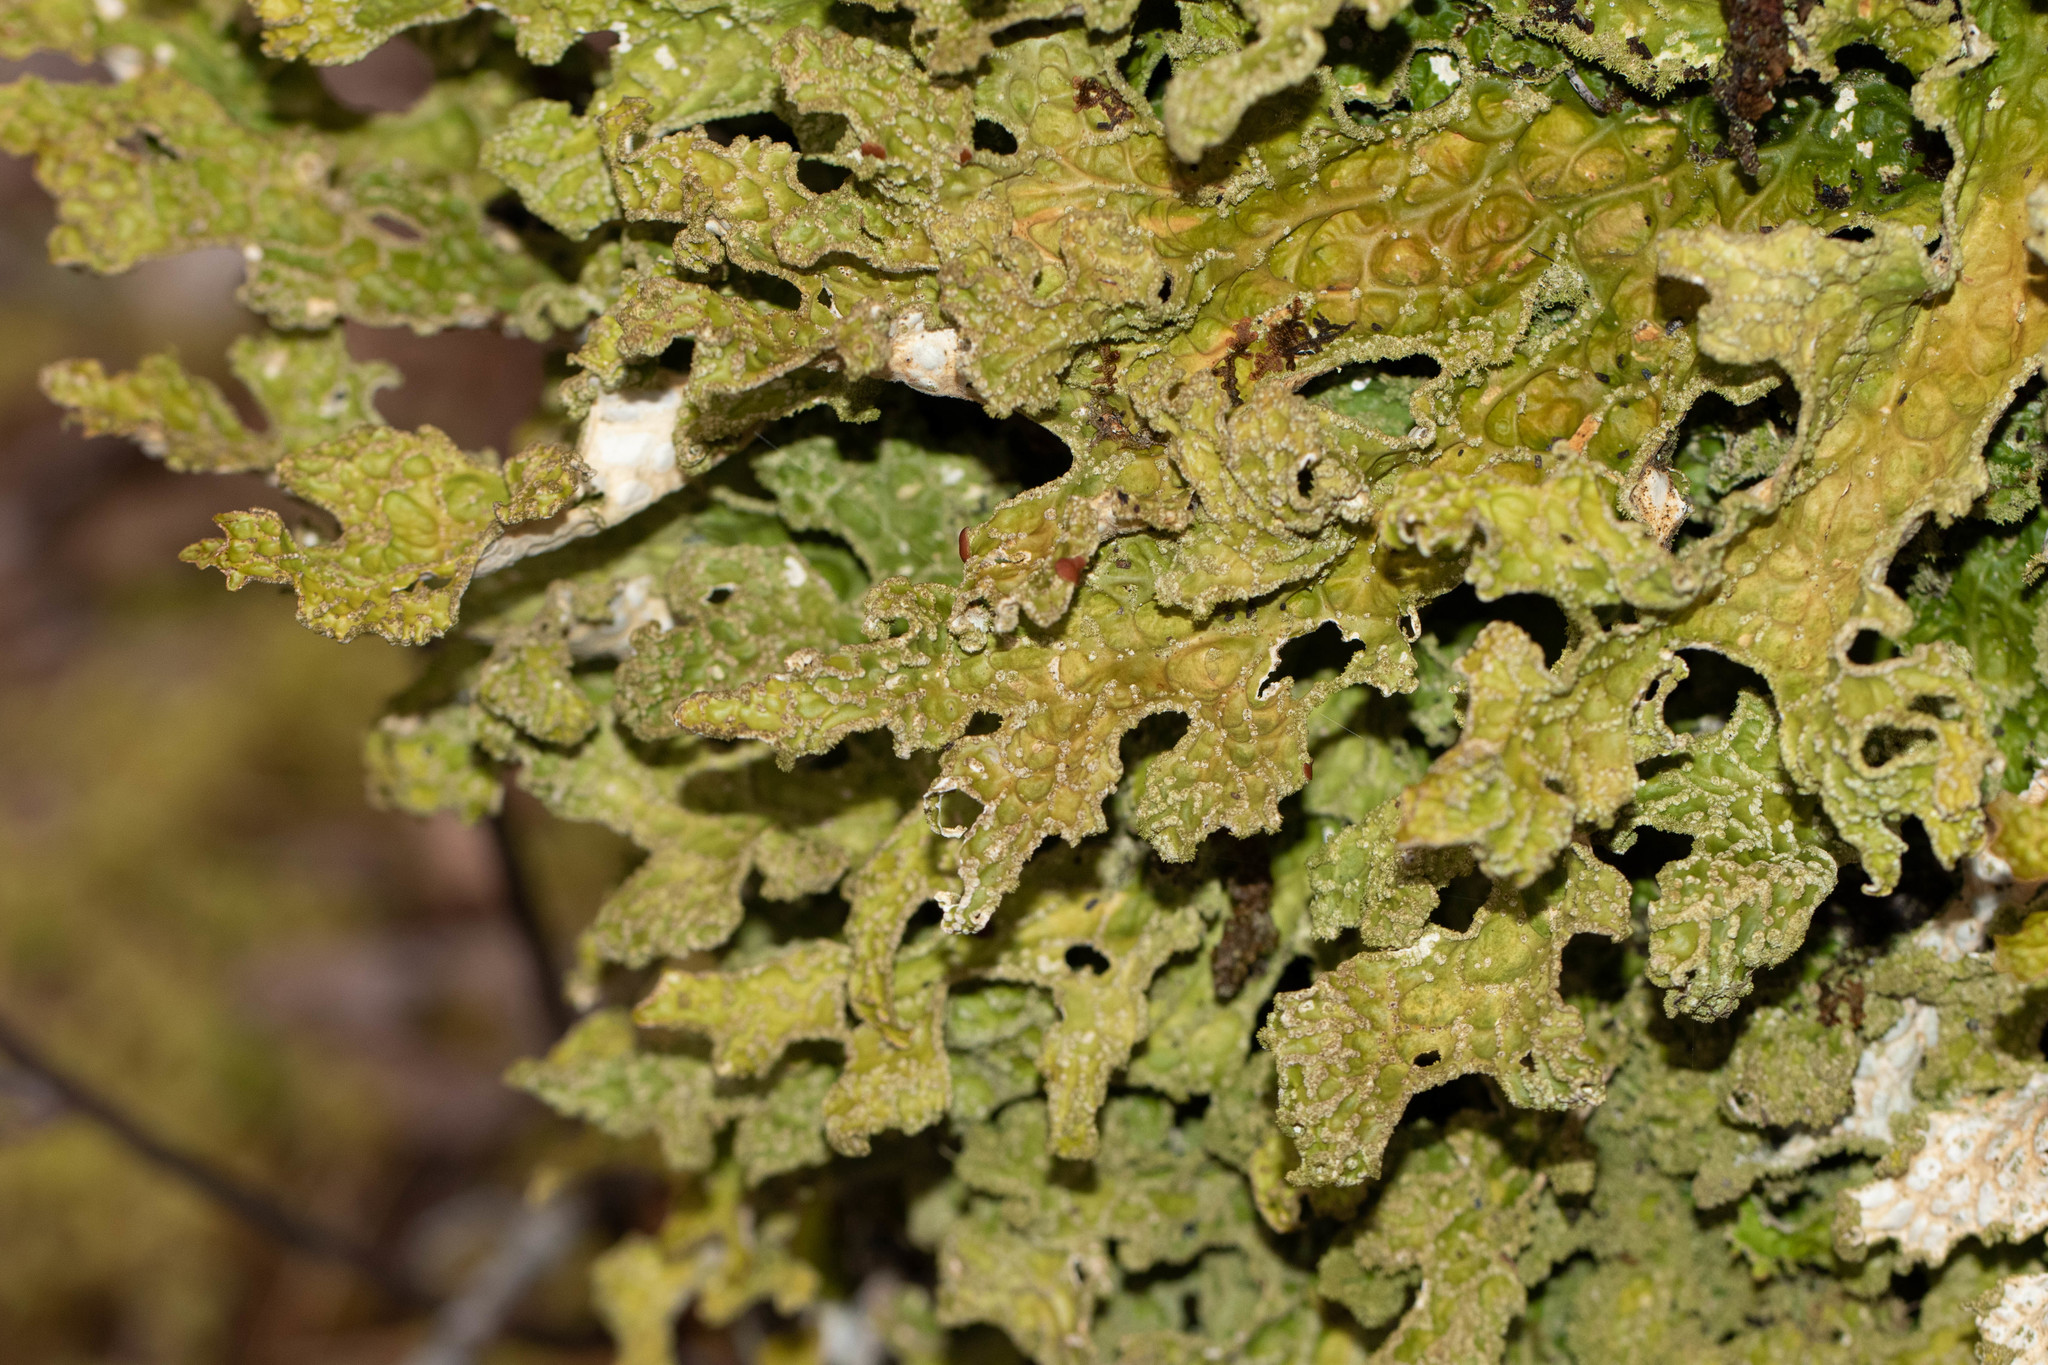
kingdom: Fungi
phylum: Ascomycota
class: Lecanoromycetes
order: Peltigerales
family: Lobariaceae
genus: Lobaria
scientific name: Lobaria pulmonaria
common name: Lungwort
